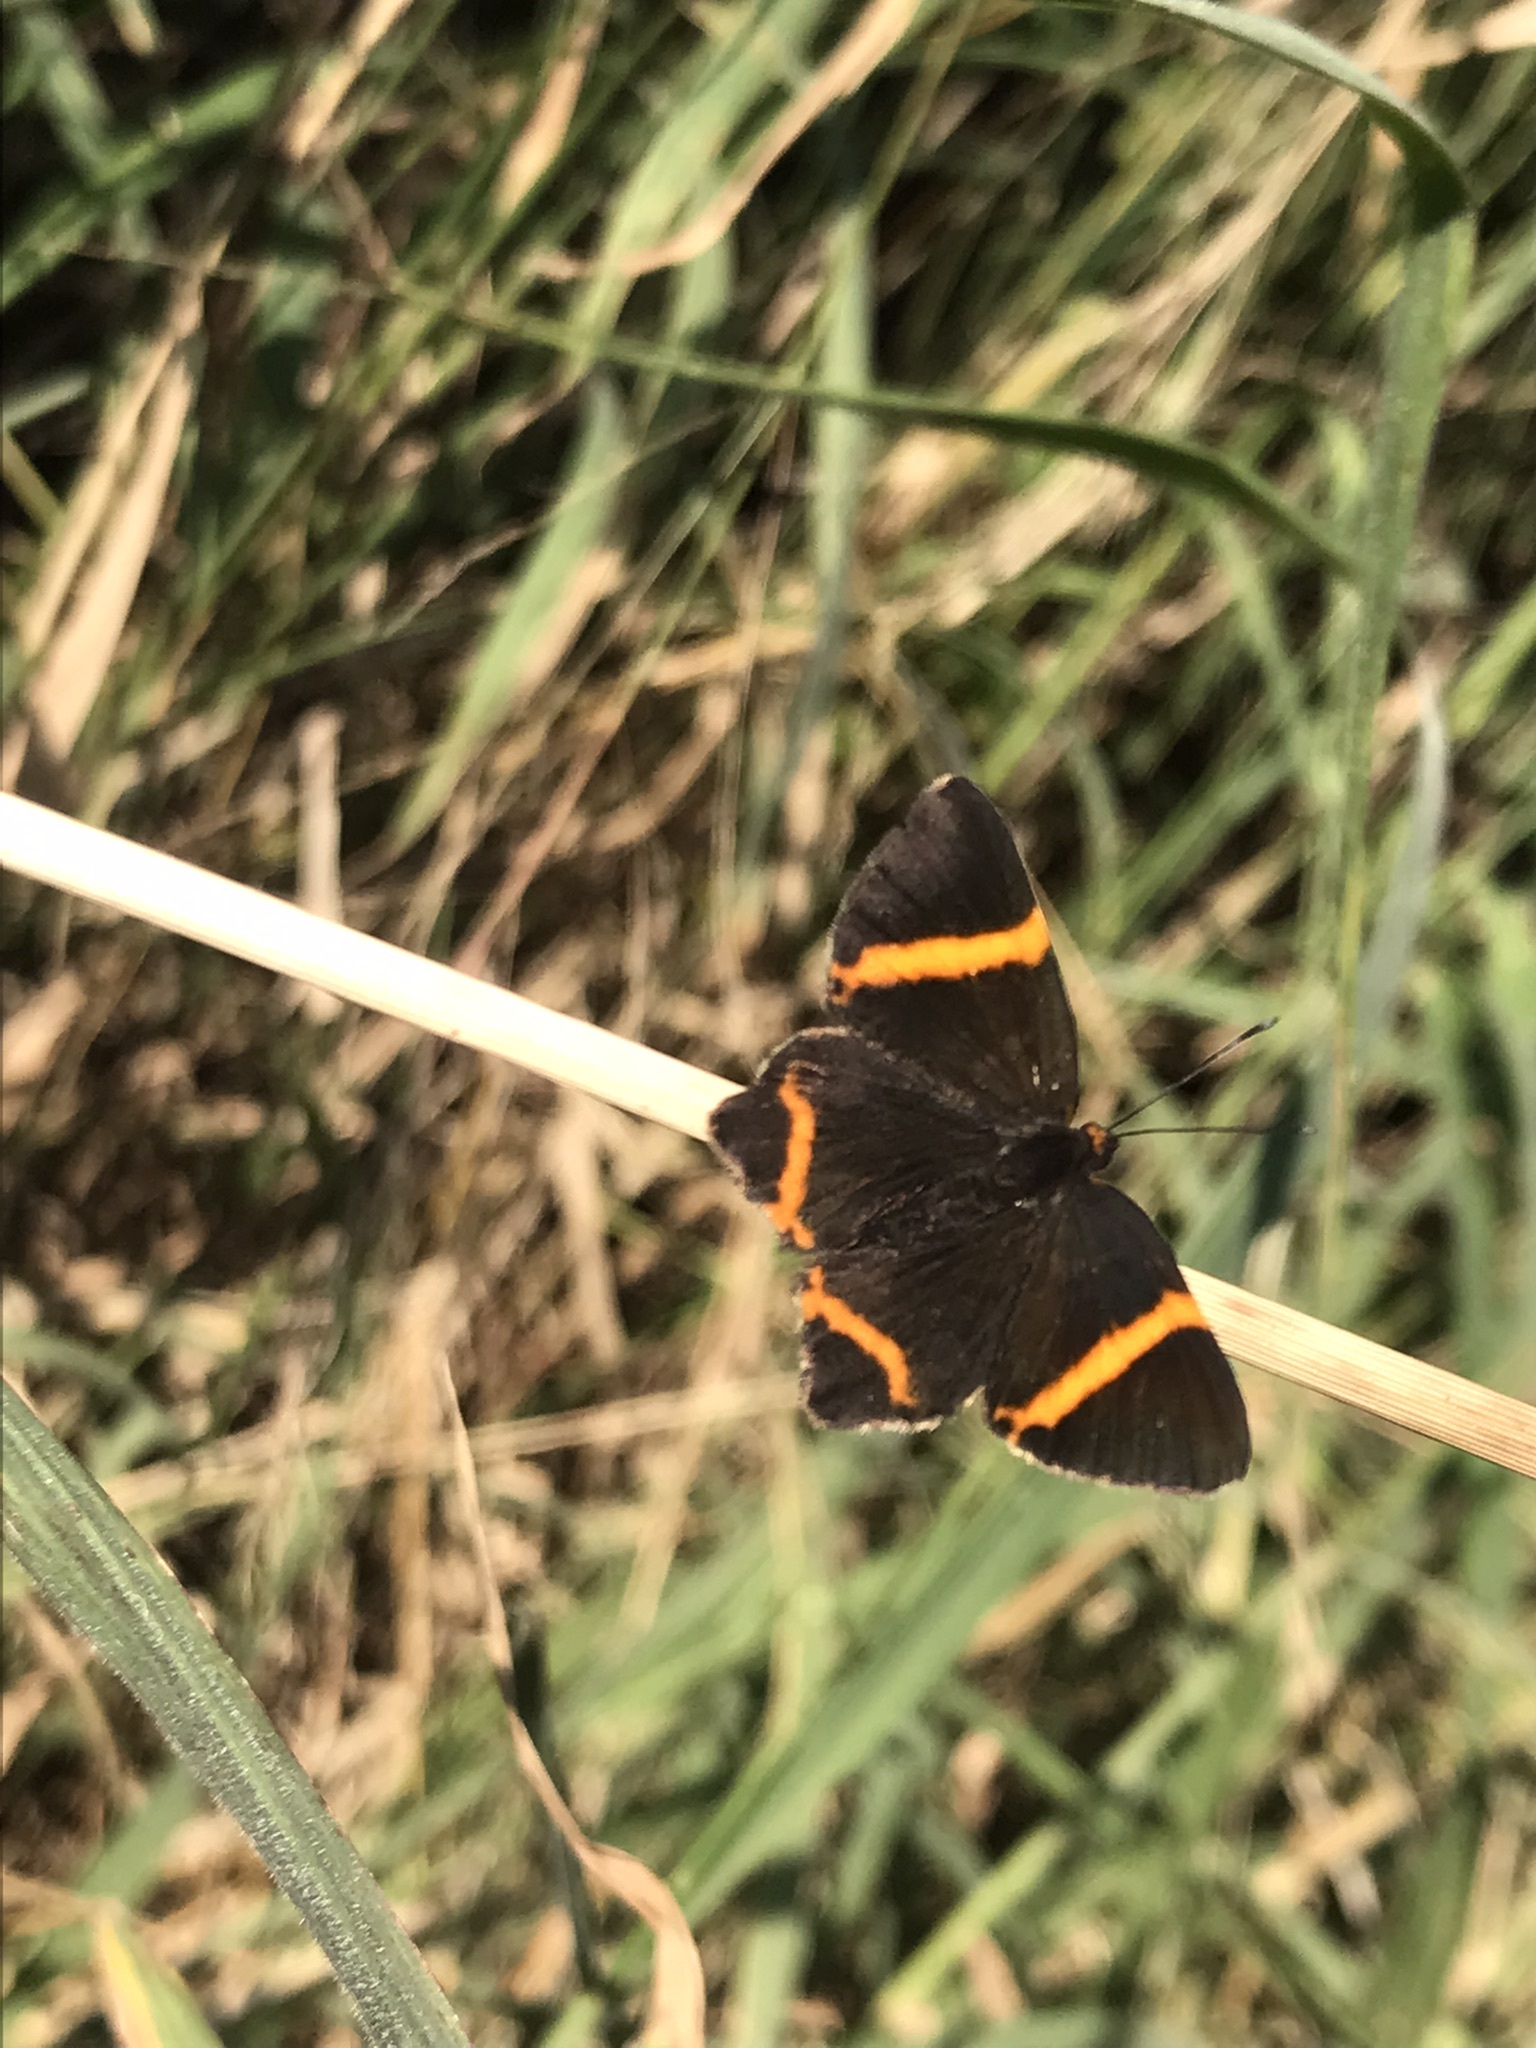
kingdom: Animalia
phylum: Arthropoda
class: Insecta
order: Lepidoptera
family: Riodinidae
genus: Riodina
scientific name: Riodina lysippoides
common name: Little dancer metalmark
